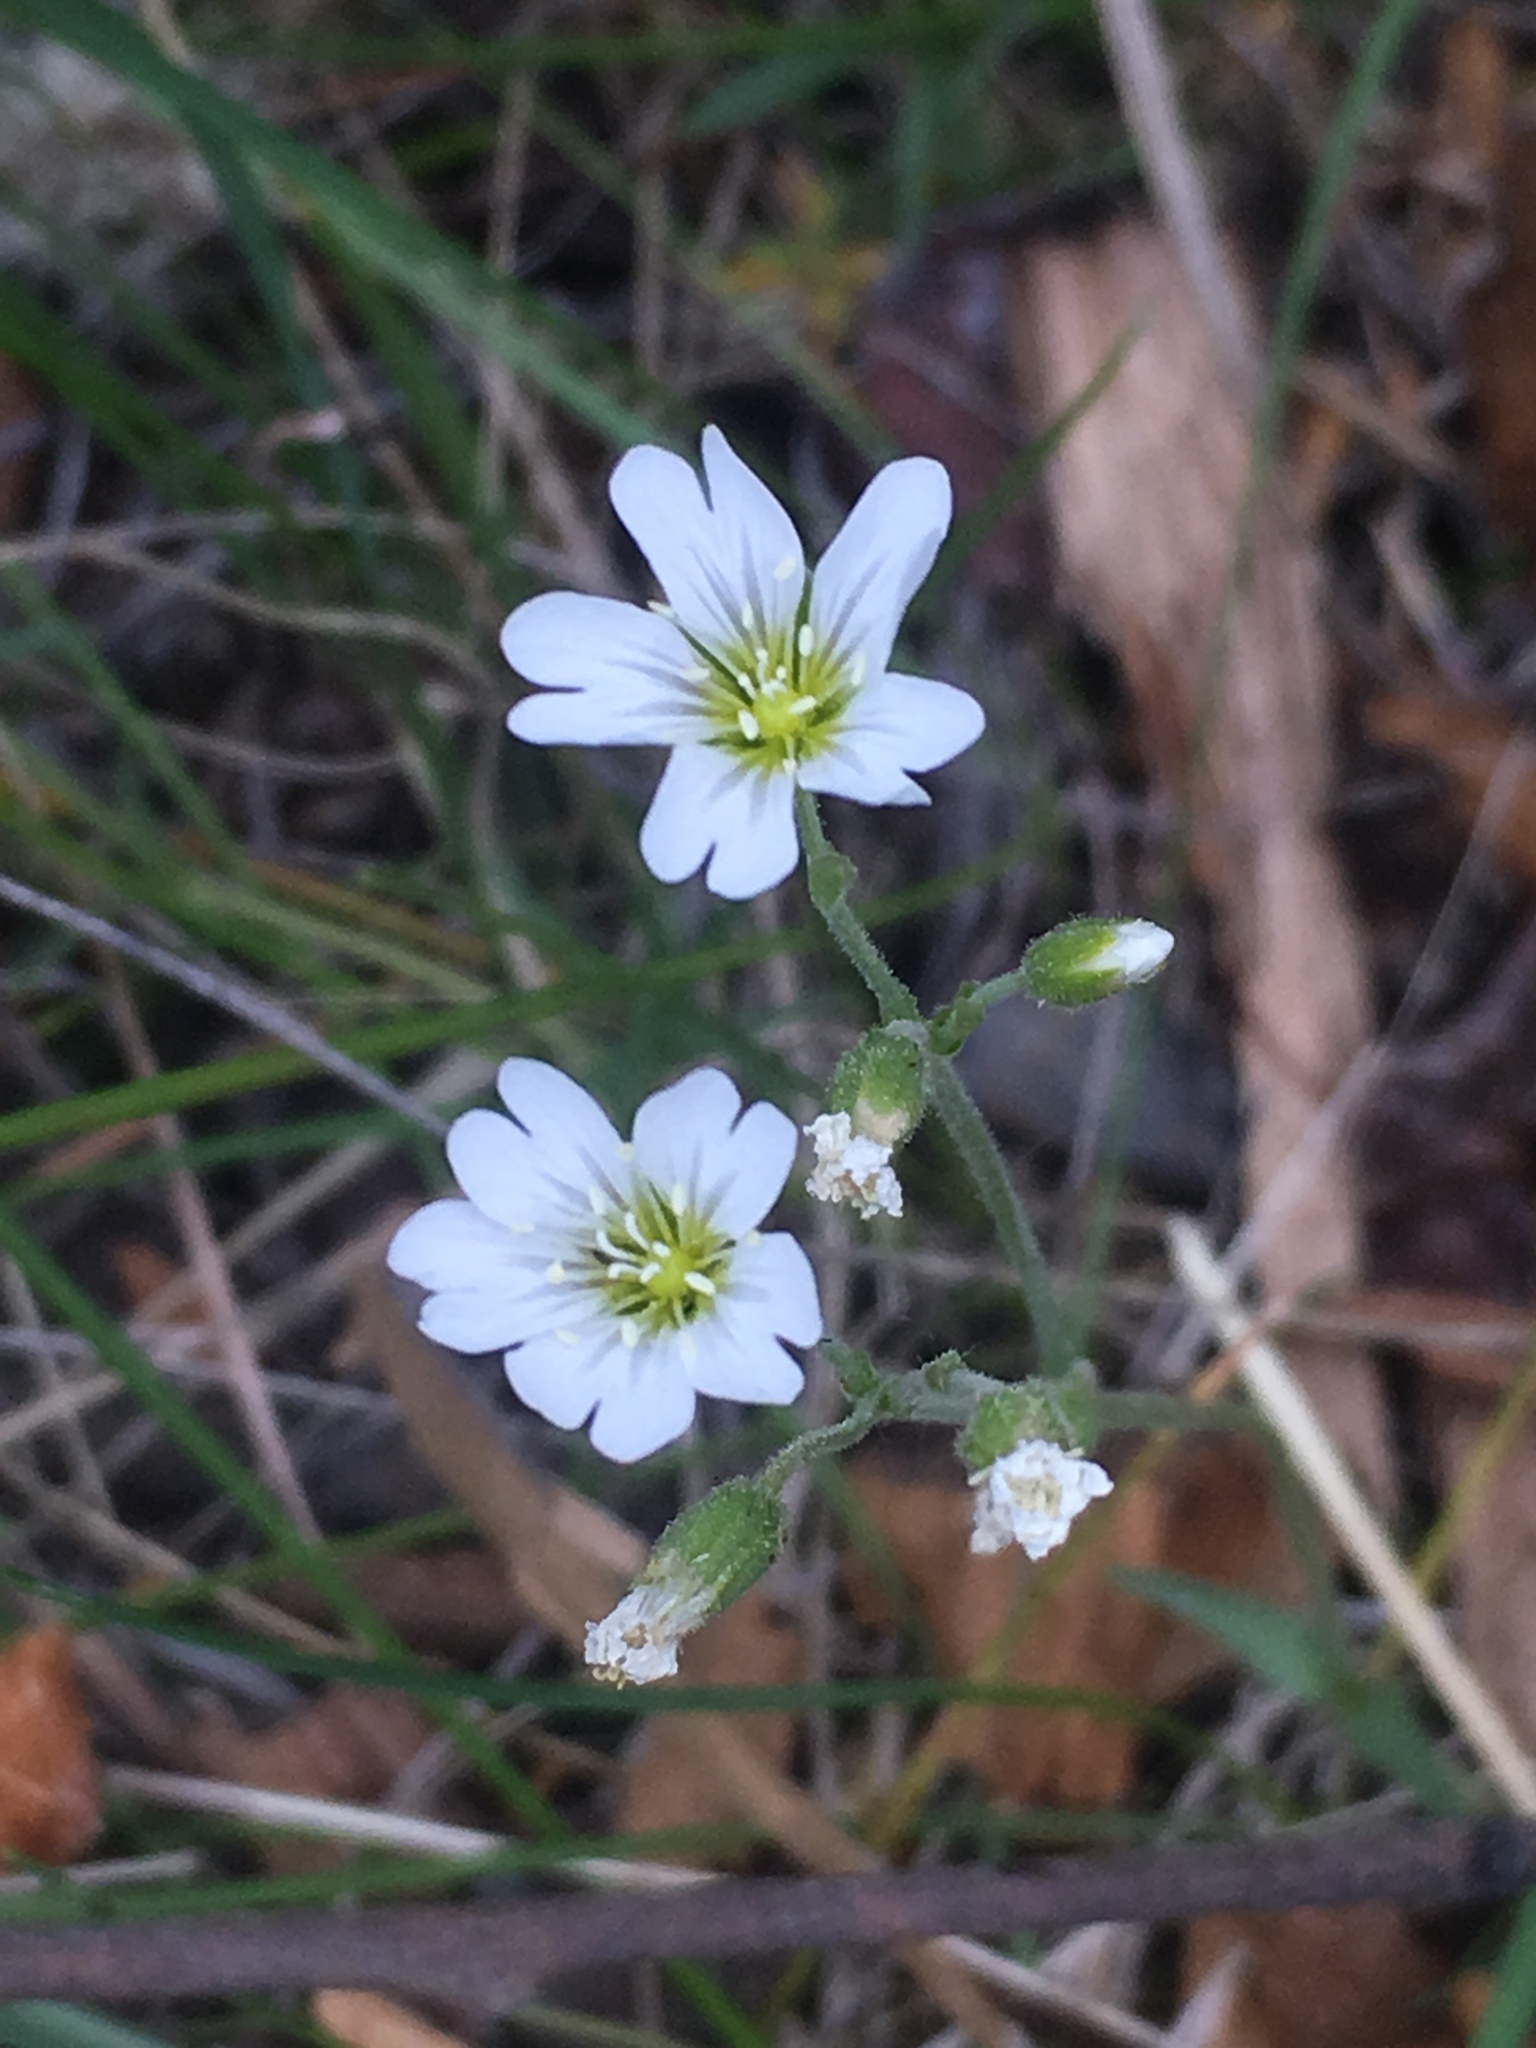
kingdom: Plantae
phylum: Tracheophyta
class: Magnoliopsida
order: Caryophyllales
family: Caryophyllaceae
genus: Cerastium
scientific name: Cerastium arvense
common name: Field mouse-ear
